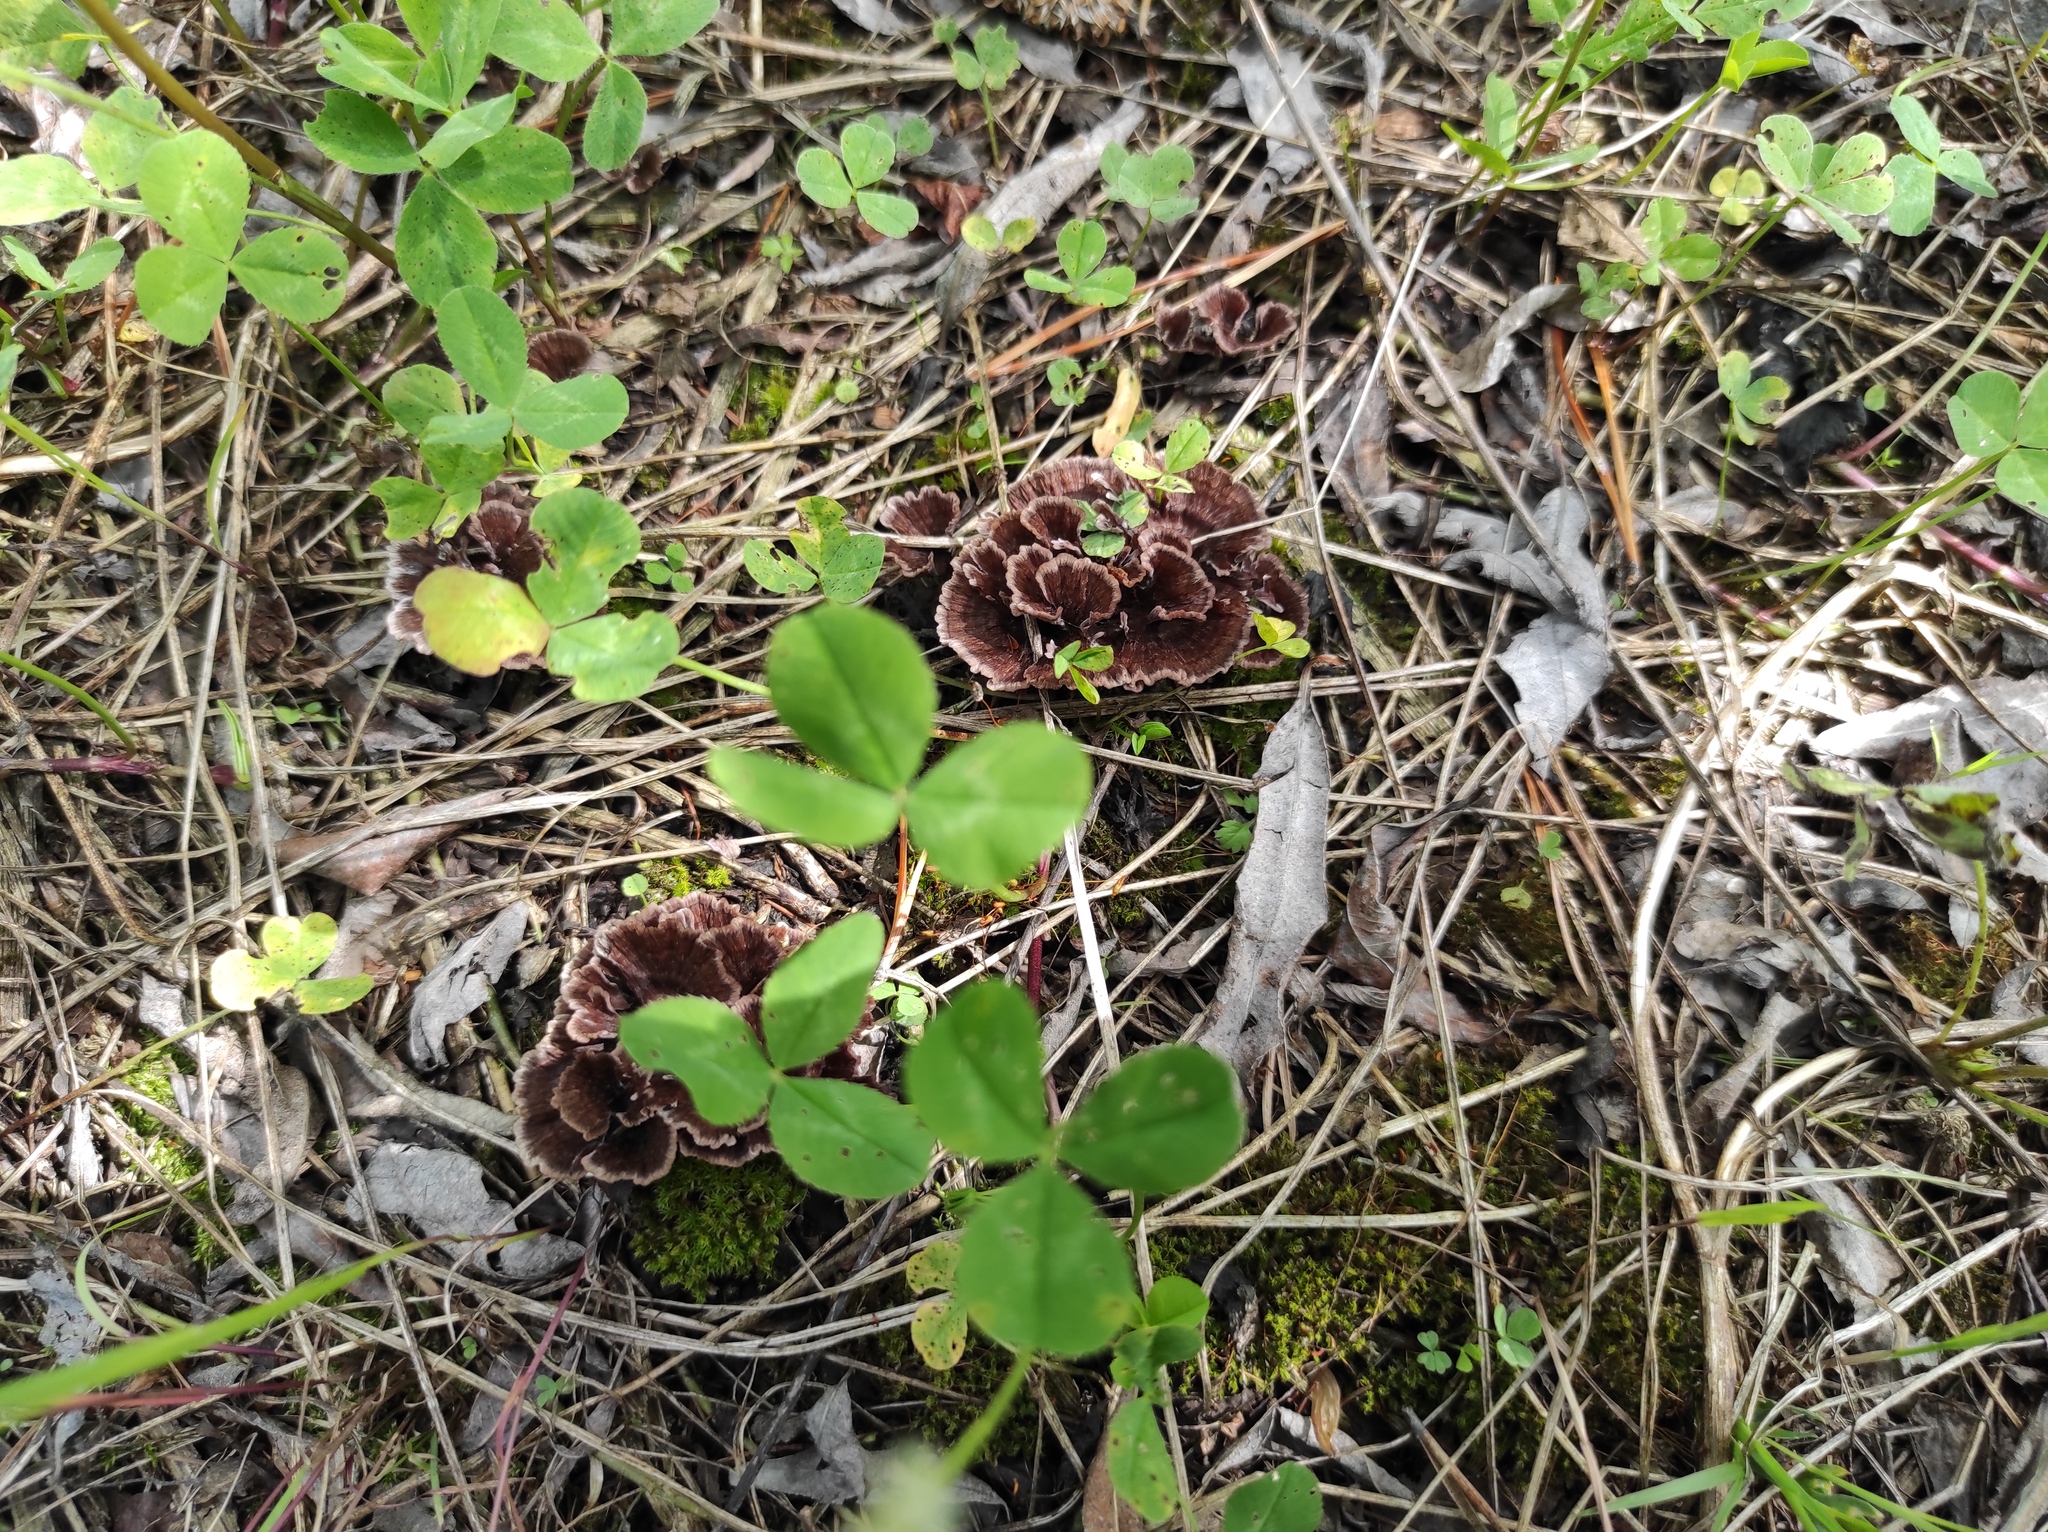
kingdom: Plantae
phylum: Tracheophyta
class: Magnoliopsida
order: Fabales
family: Fabaceae
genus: Trifolium
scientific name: Trifolium repens
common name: White clover
